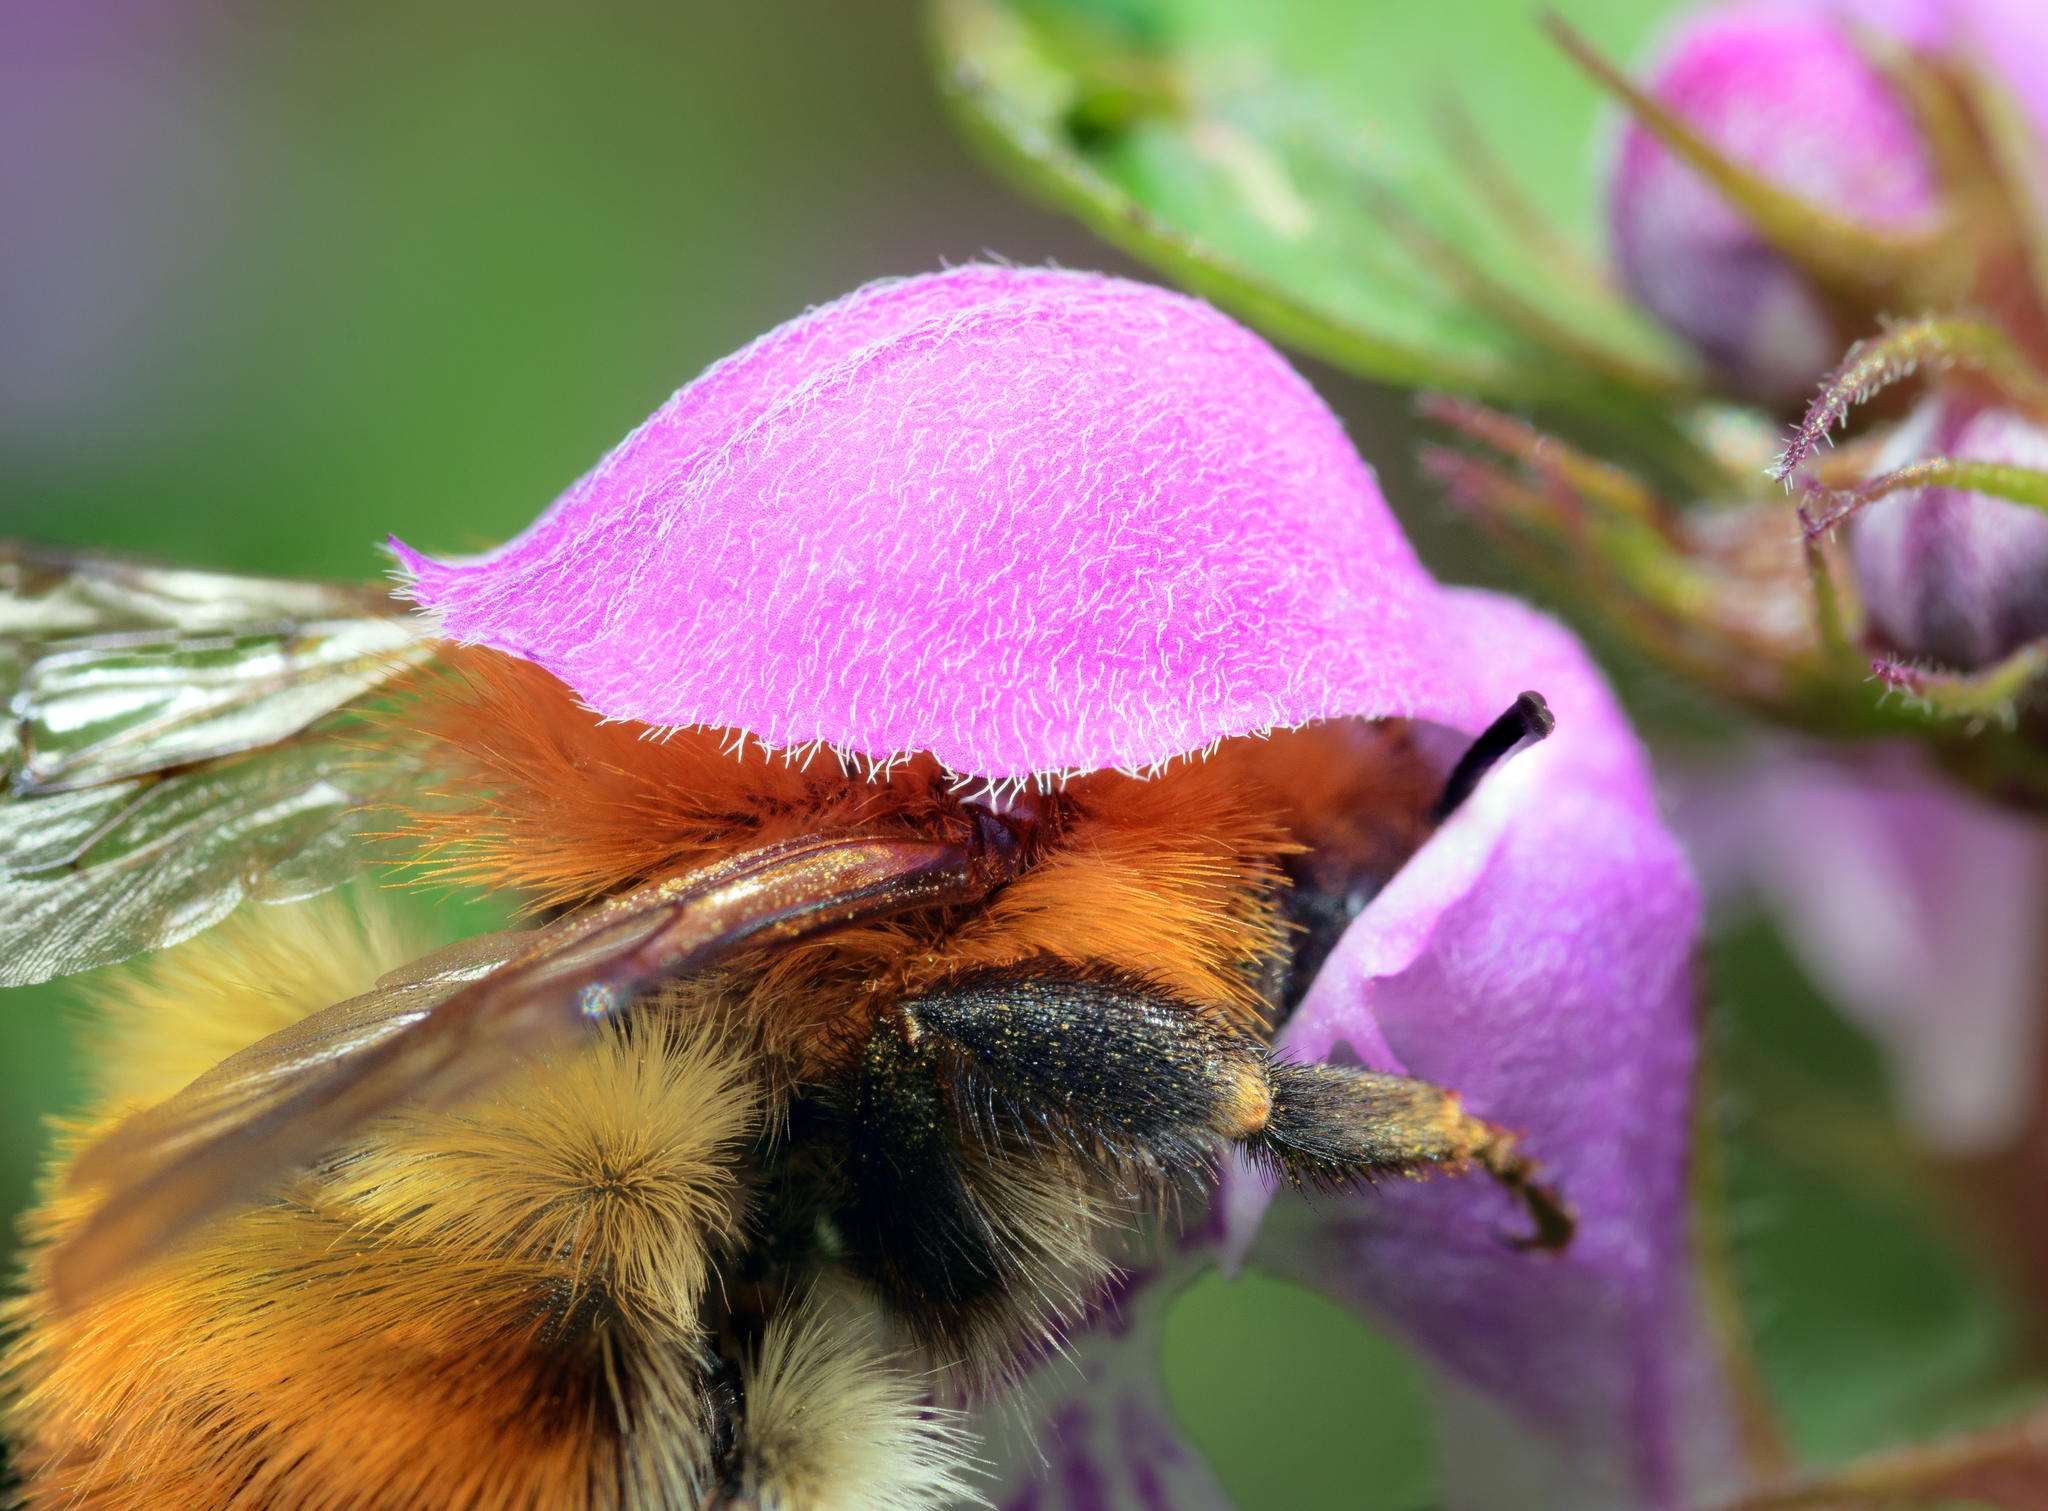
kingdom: Animalia
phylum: Arthropoda
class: Insecta
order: Hymenoptera
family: Apidae
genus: Bombus
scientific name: Bombus pascuorum
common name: Common carder bee
